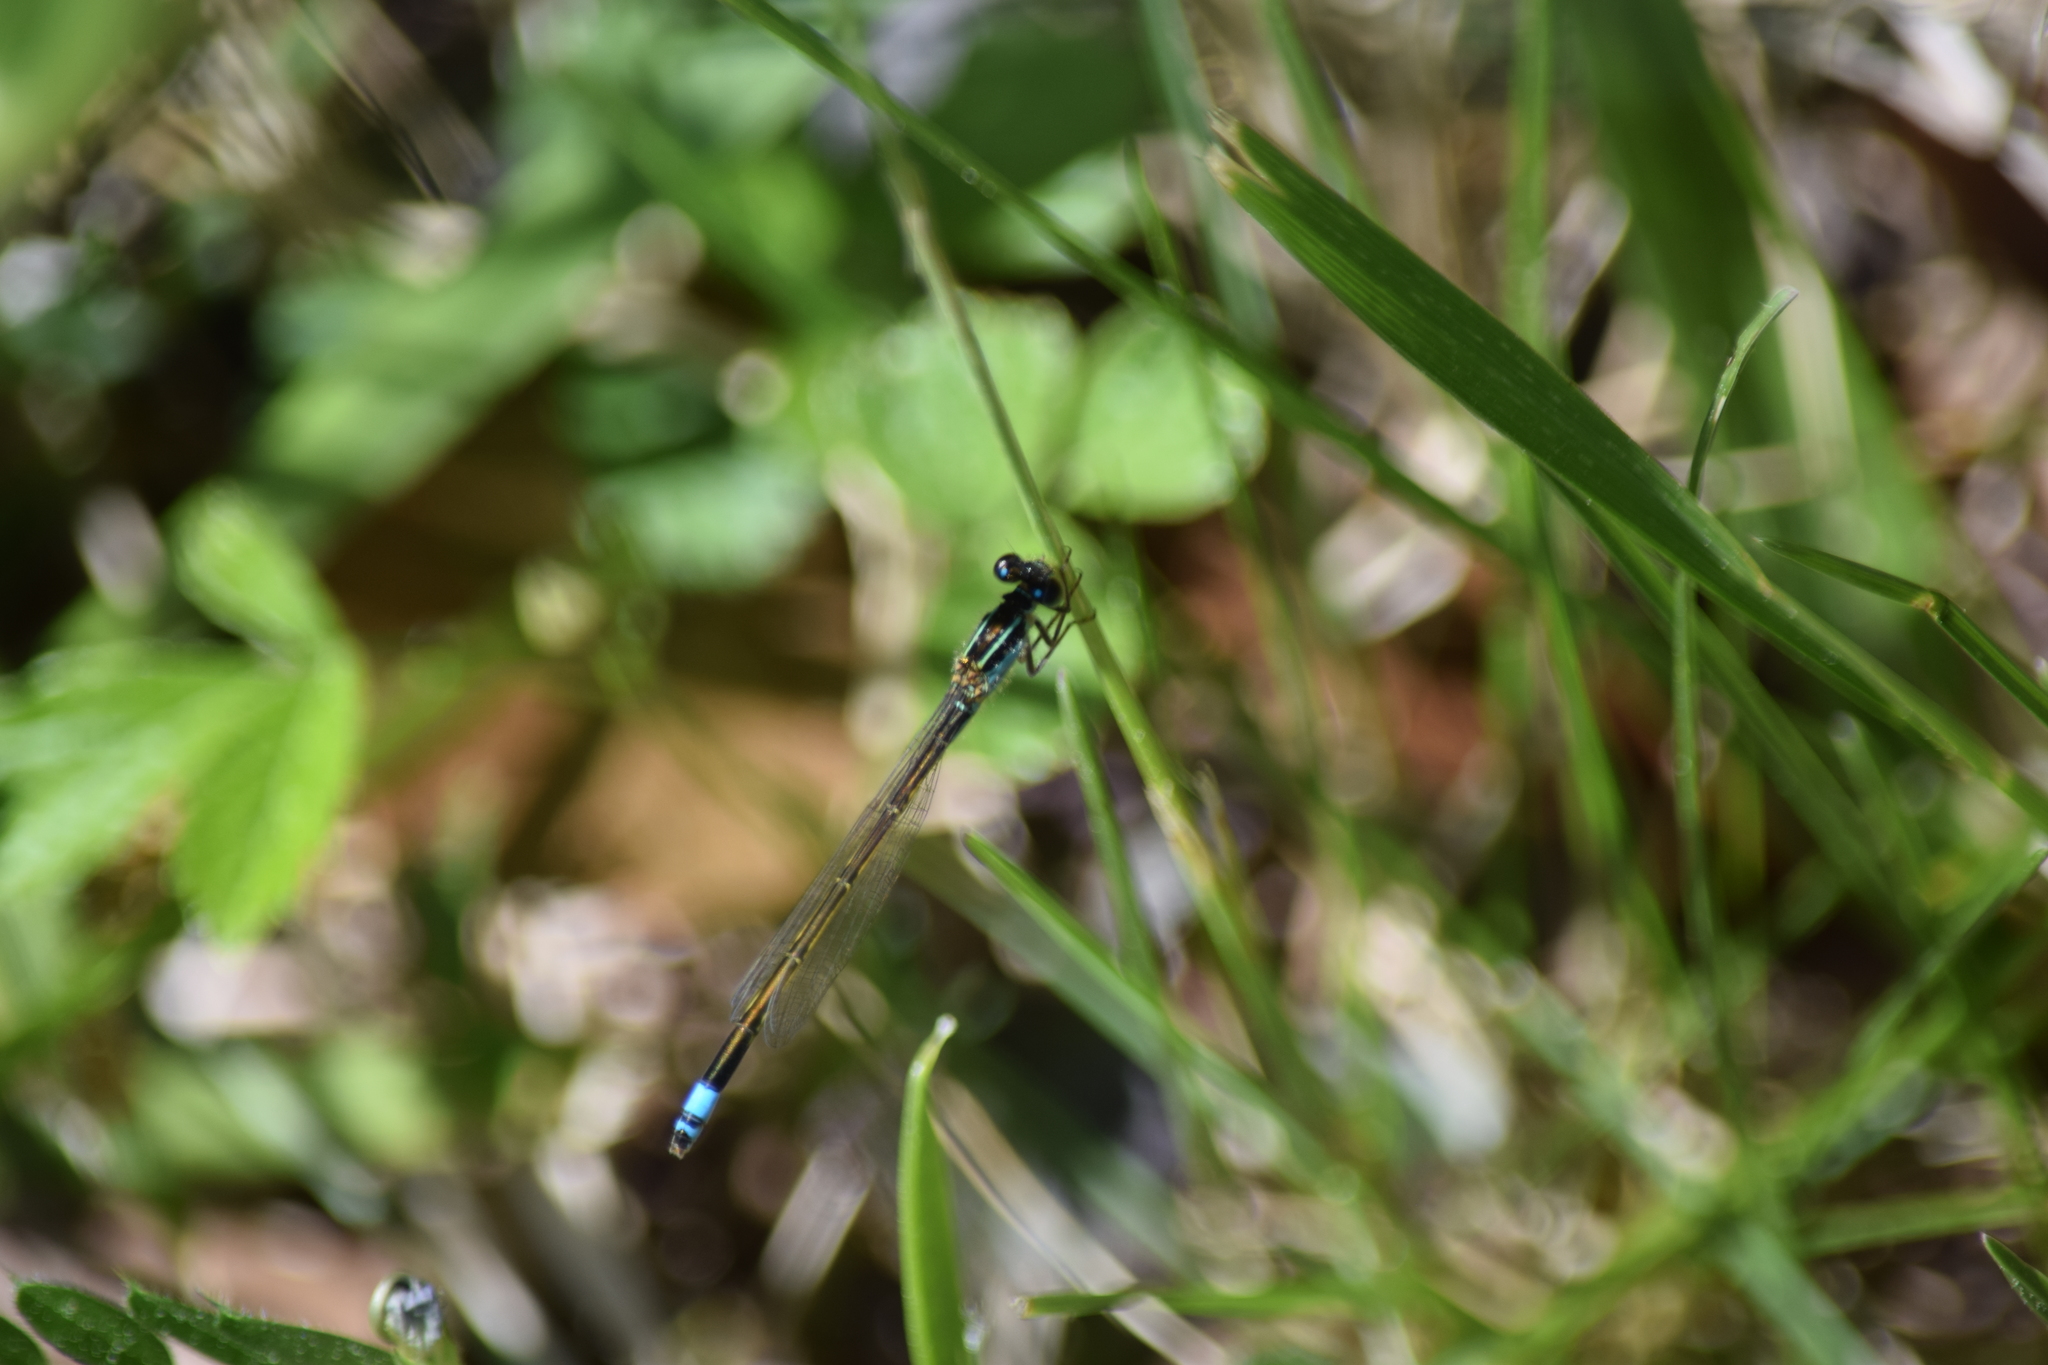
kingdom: Animalia
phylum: Arthropoda
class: Insecta
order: Odonata
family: Coenagrionidae
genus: Ischnura
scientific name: Ischnura ramburii
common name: Rambur's forktail
